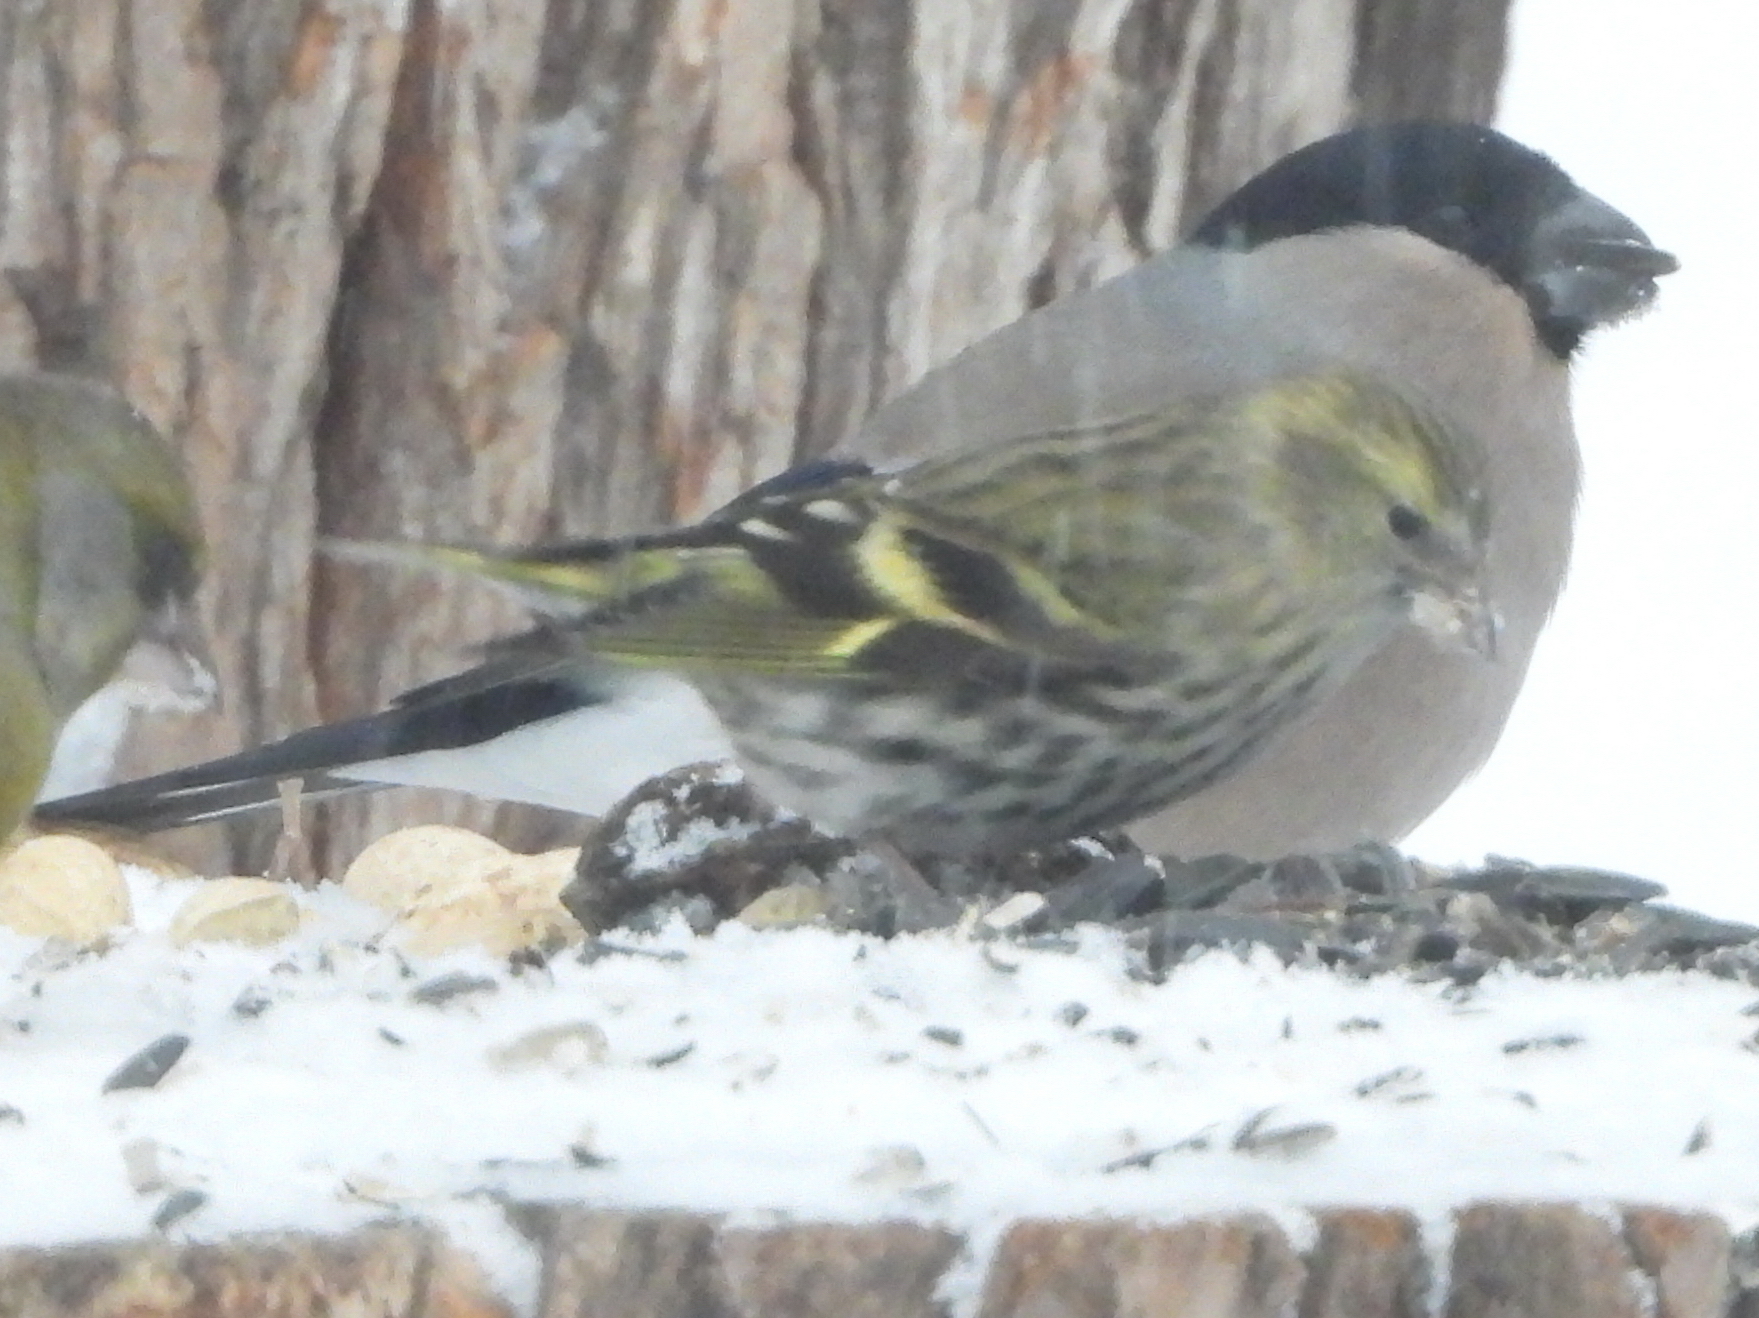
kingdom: Animalia
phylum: Chordata
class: Aves
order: Passeriformes
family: Fringillidae
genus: Spinus
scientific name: Spinus spinus
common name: Eurasian siskin
